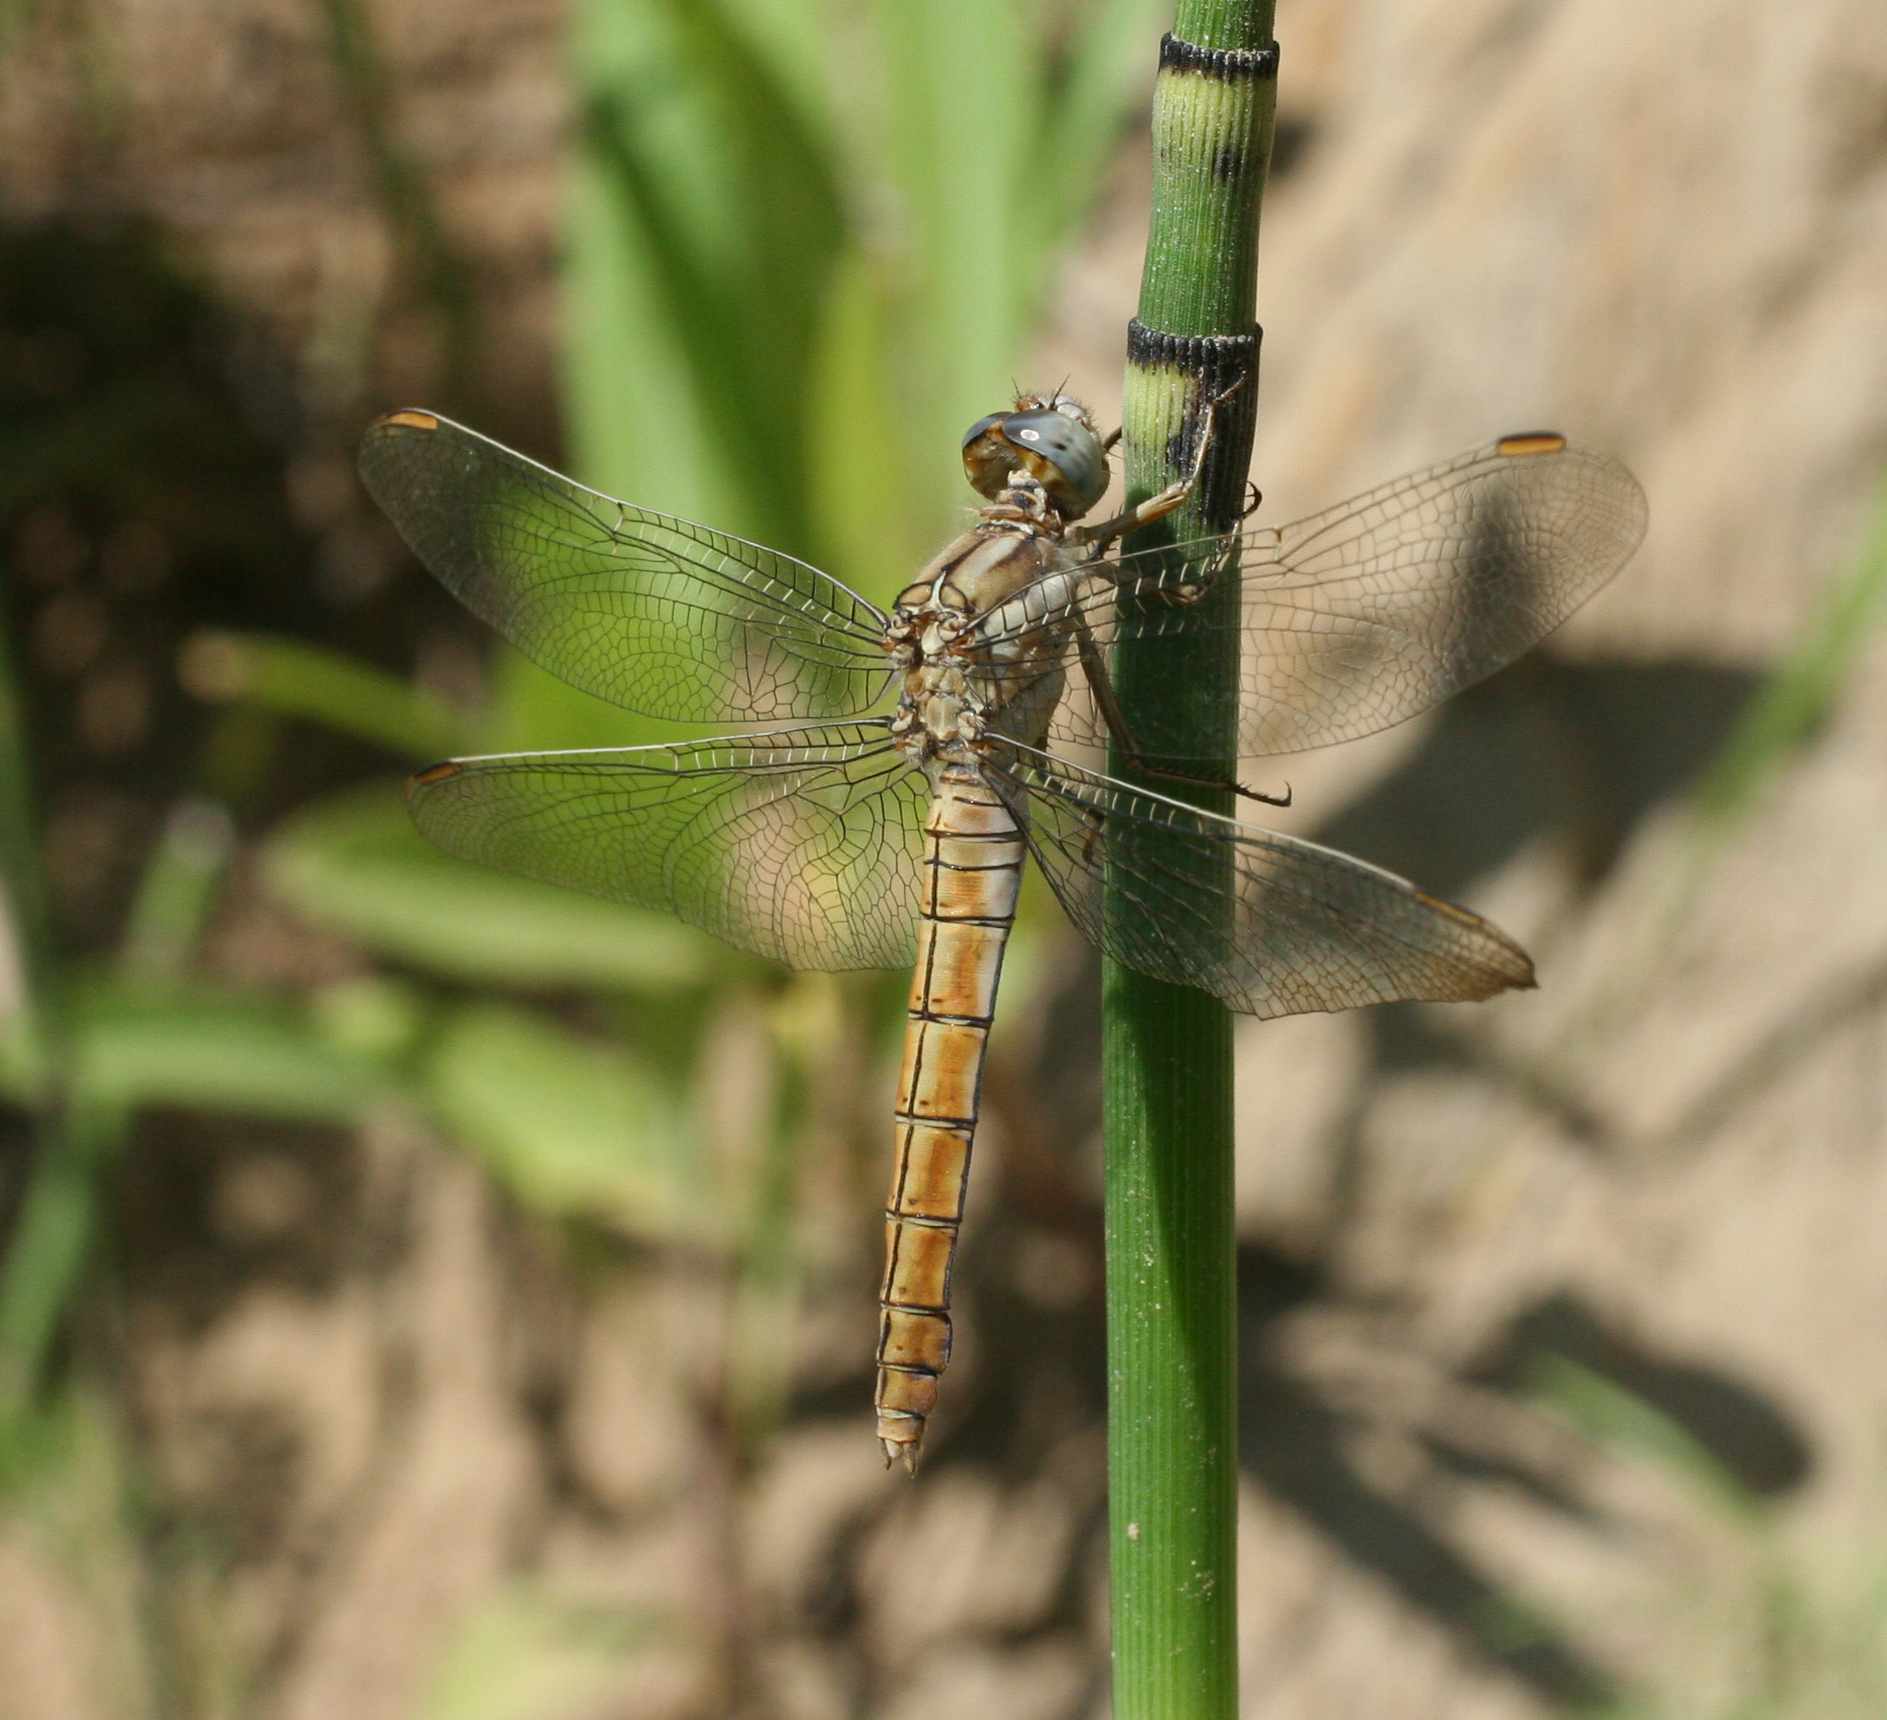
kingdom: Animalia
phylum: Arthropoda
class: Insecta
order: Odonata
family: Libellulidae
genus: Orthetrum
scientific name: Orthetrum brunneum
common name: Southern skimmer
